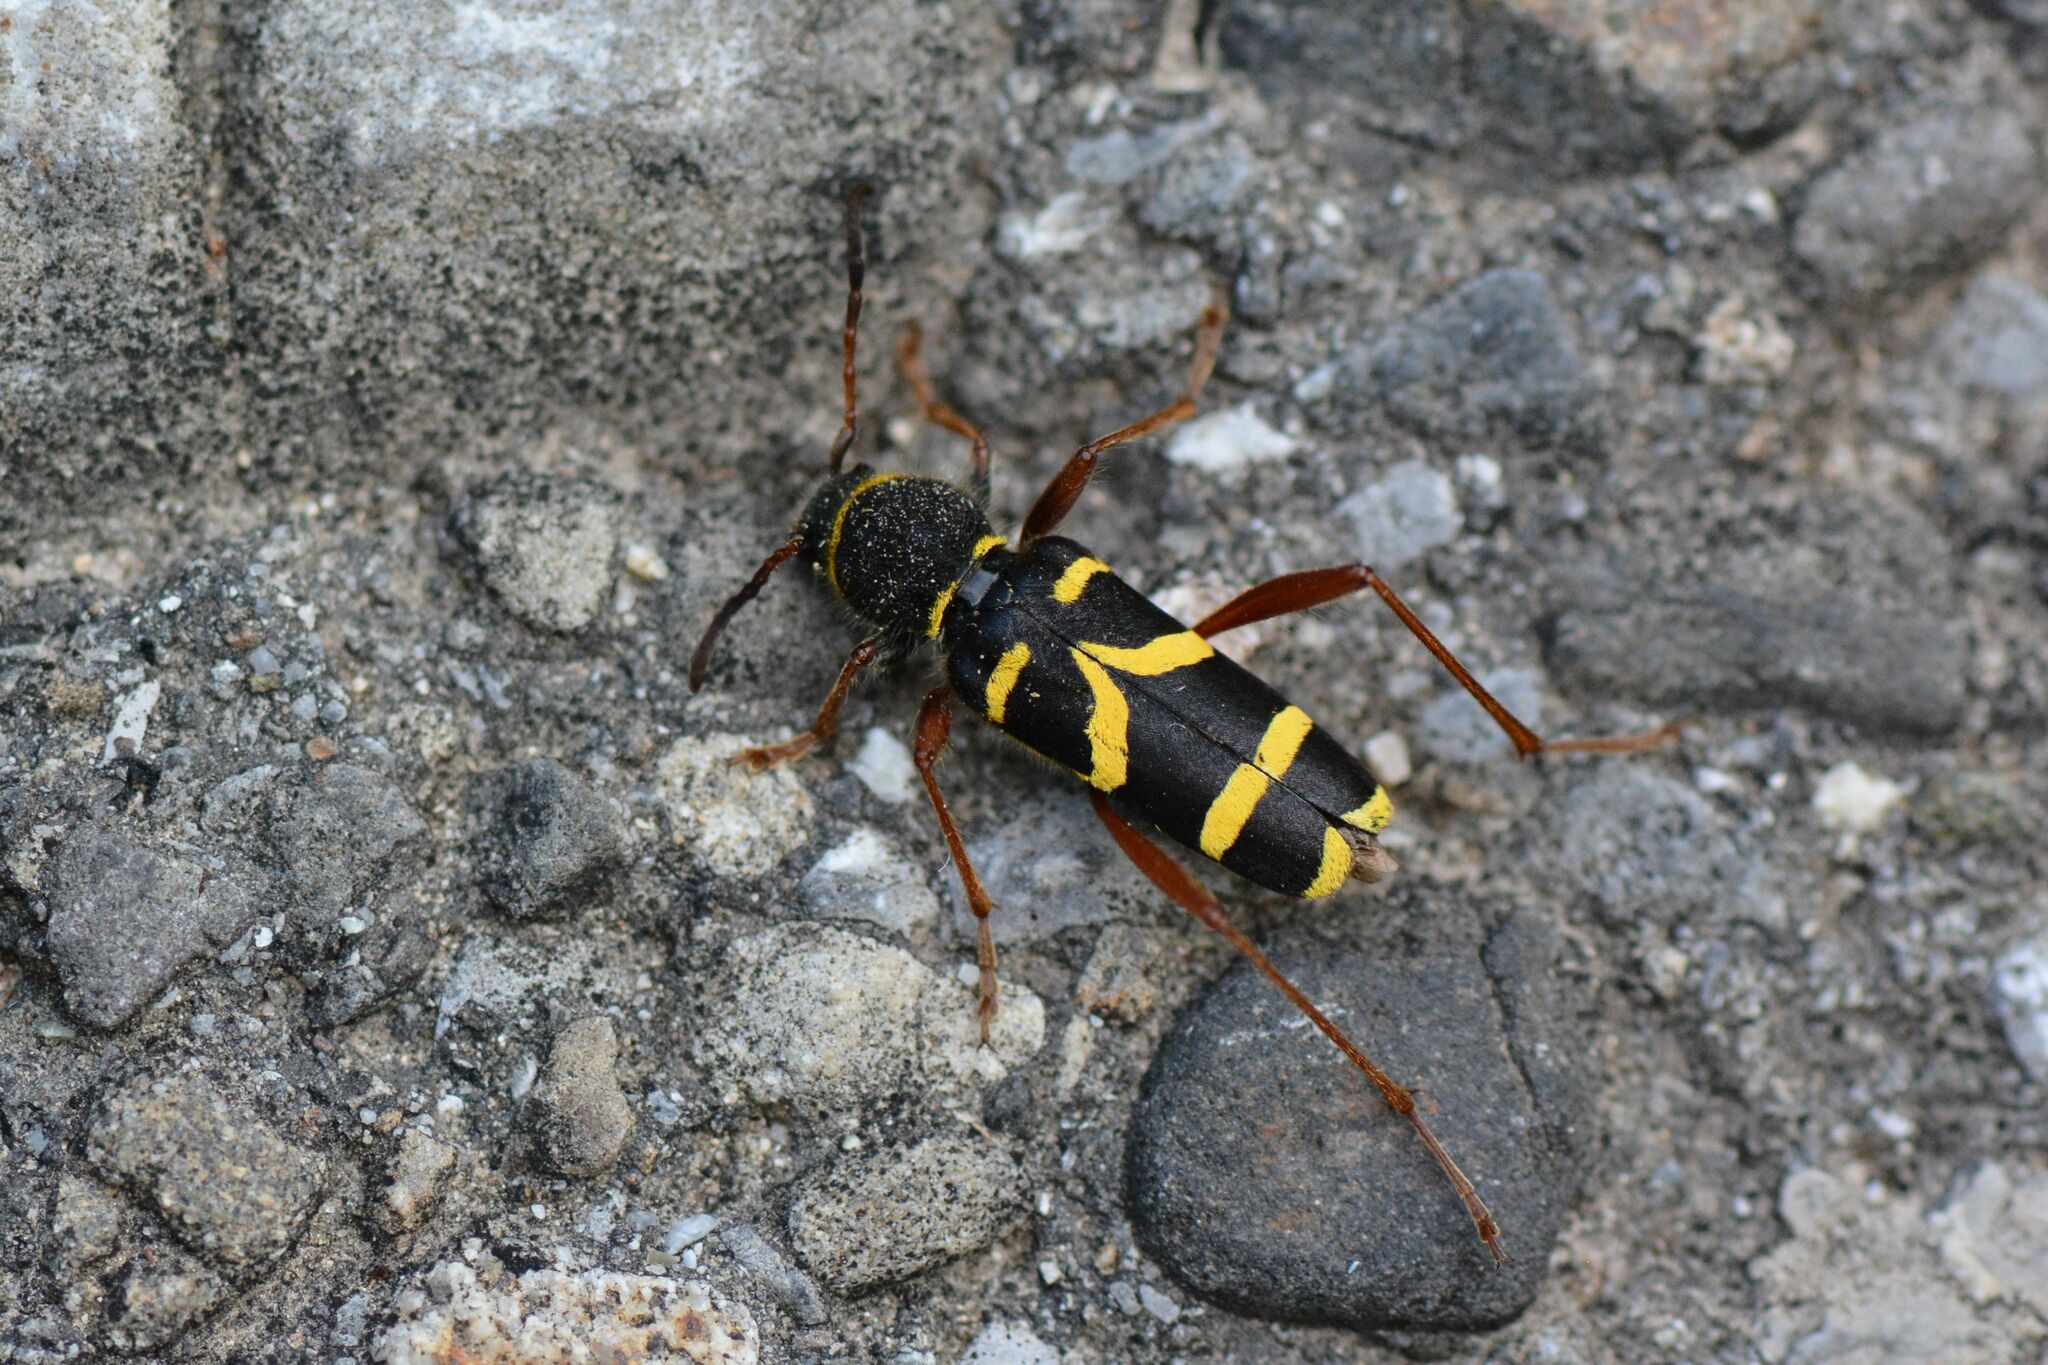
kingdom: Animalia
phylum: Arthropoda
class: Insecta
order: Coleoptera
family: Cerambycidae
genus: Clytus
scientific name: Clytus arietis
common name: Wasp beetle
